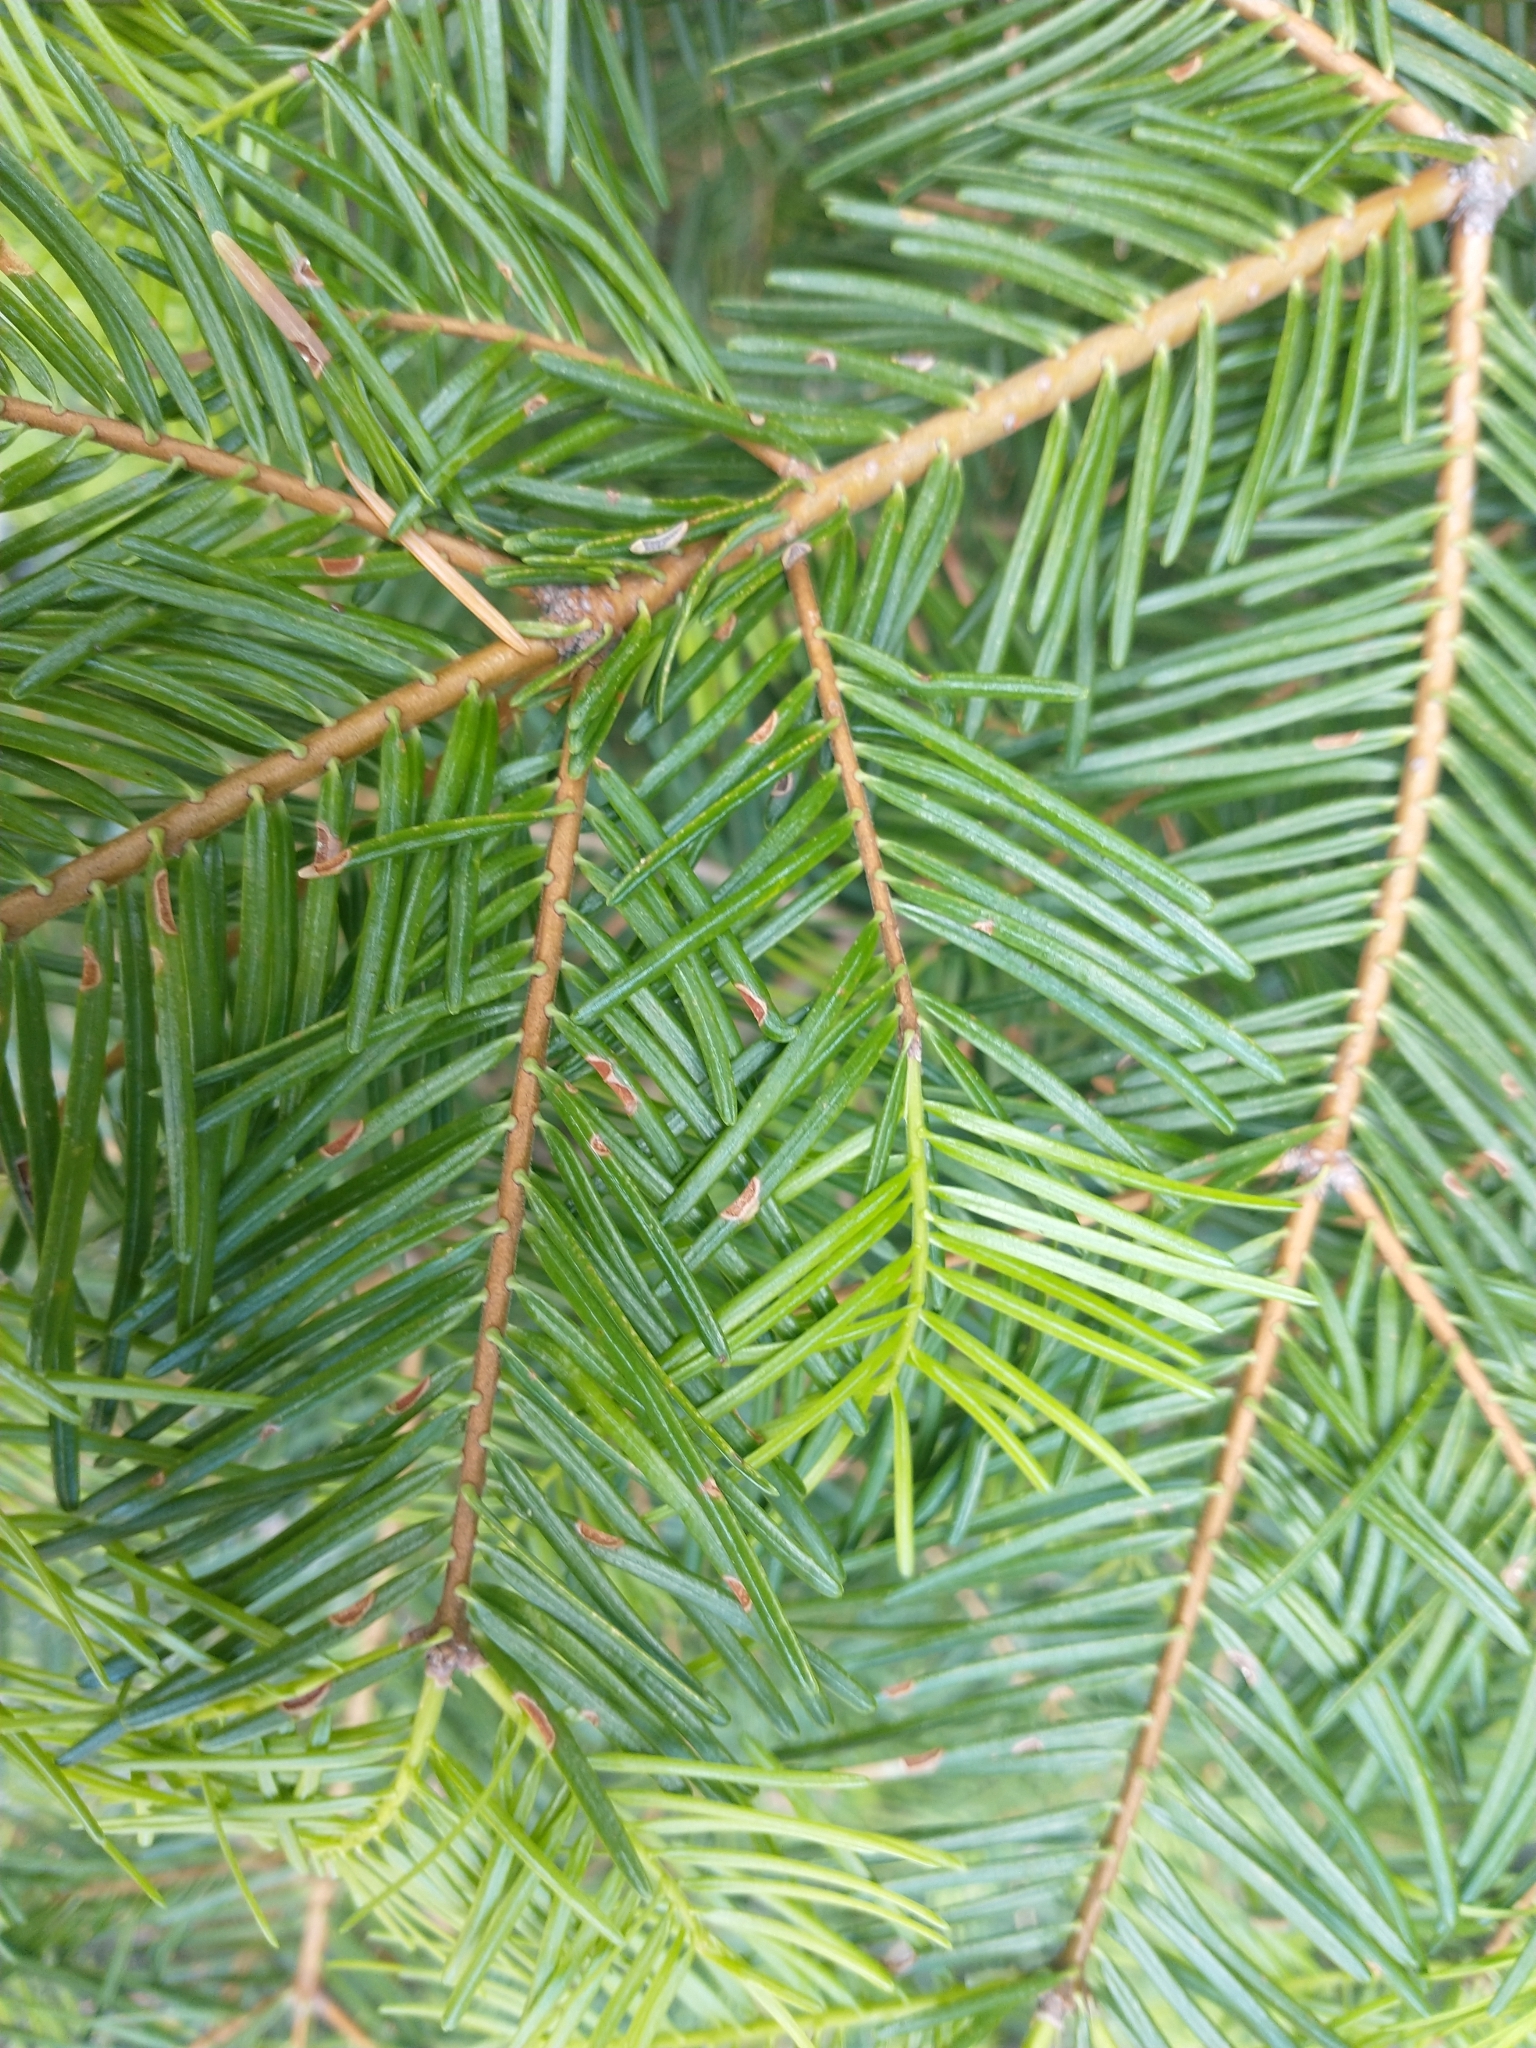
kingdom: Plantae
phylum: Tracheophyta
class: Pinopsida
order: Pinales
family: Pinaceae
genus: Abies
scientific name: Abies concolor
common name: Colorado fir
